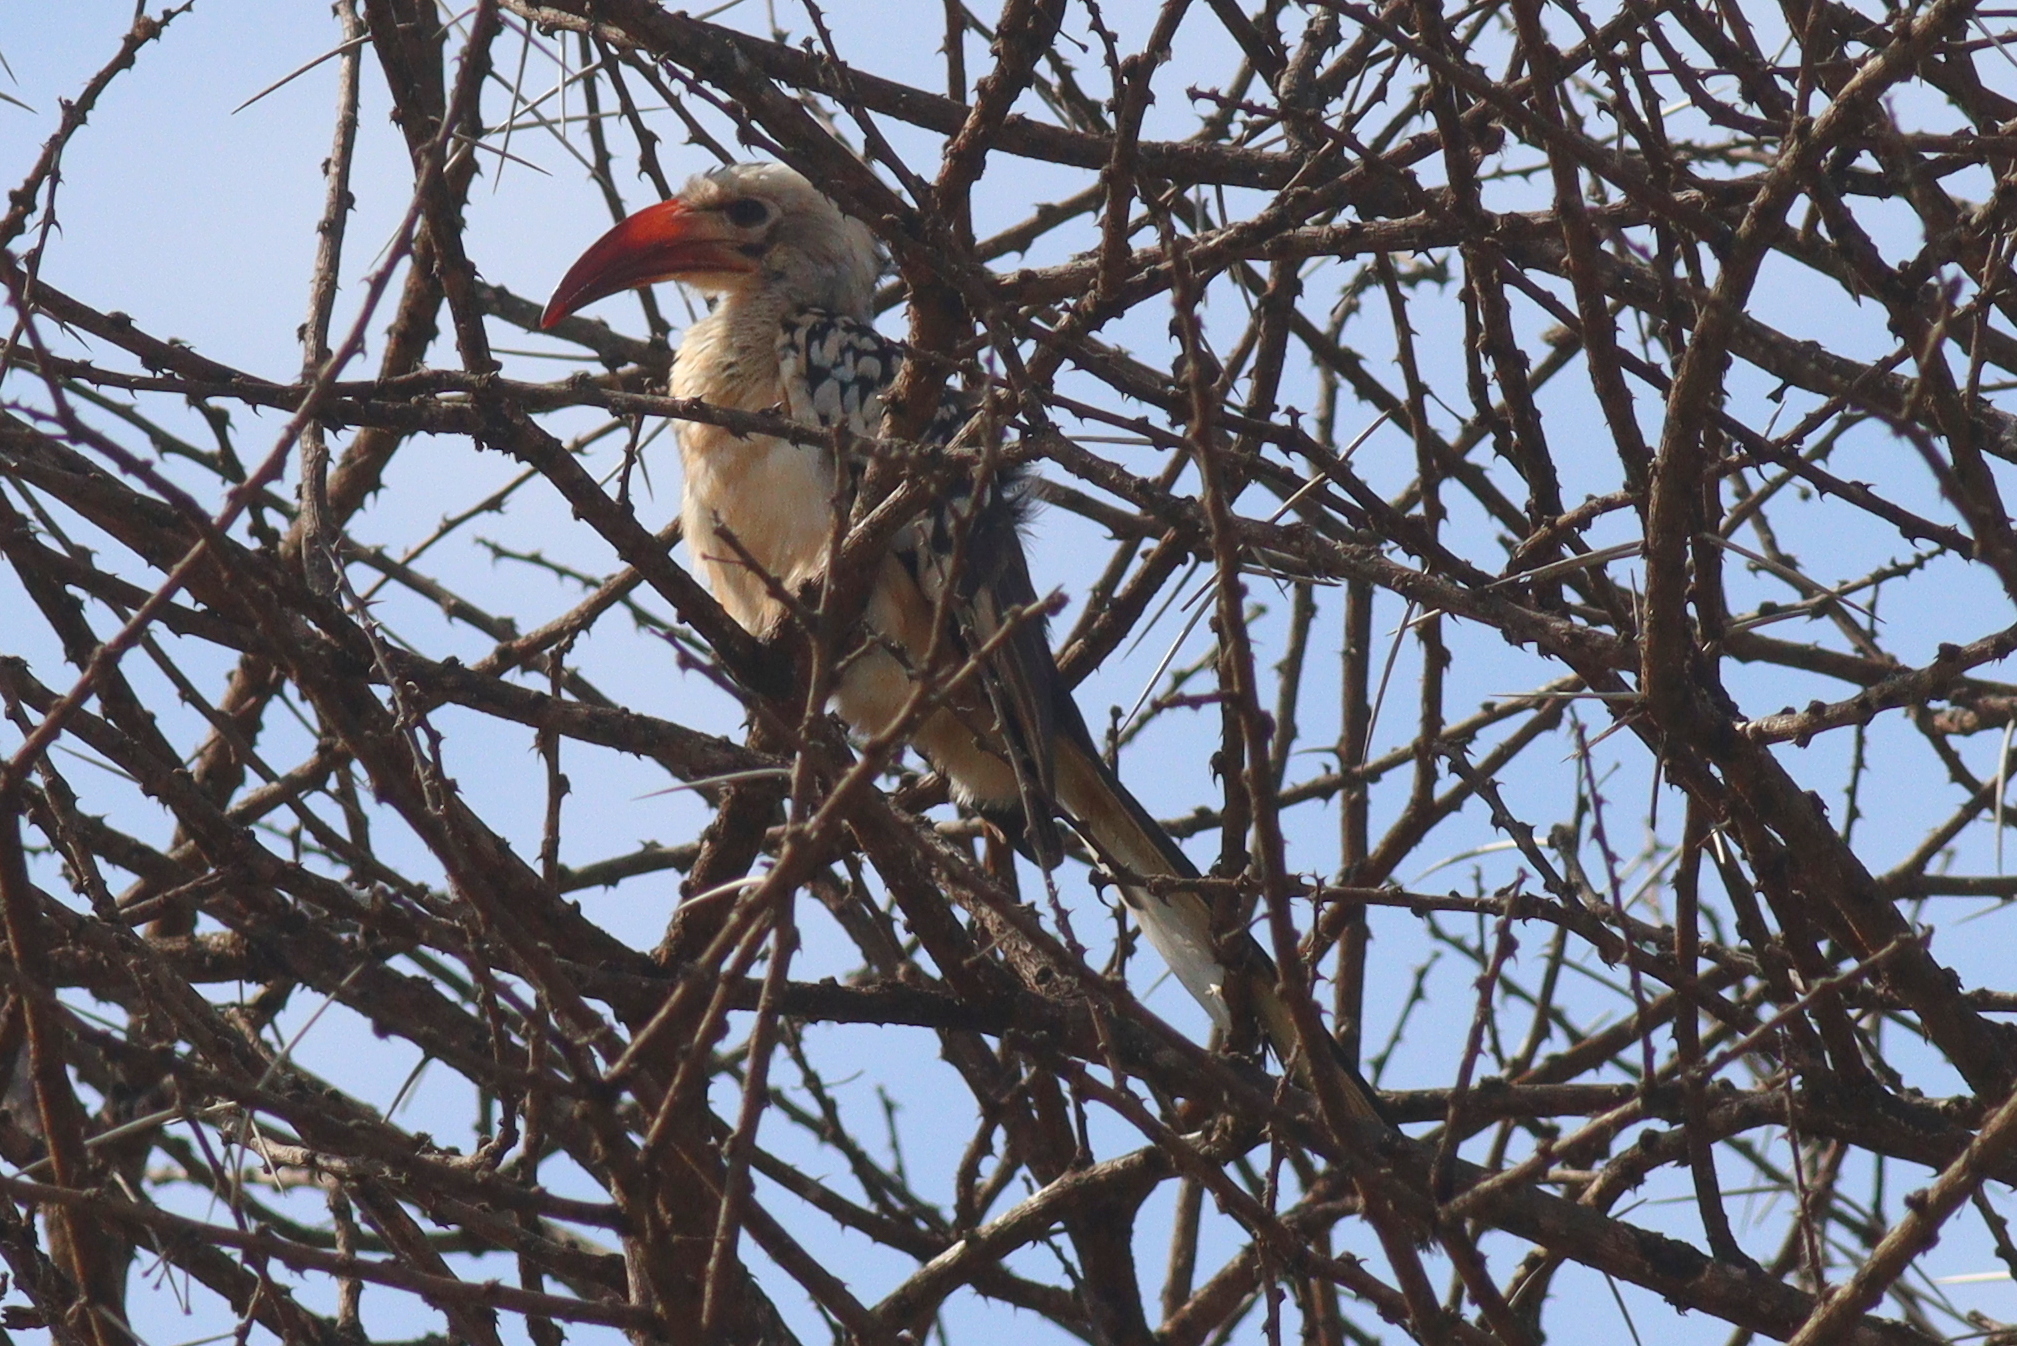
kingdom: Animalia
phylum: Chordata
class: Aves
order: Bucerotiformes
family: Bucerotidae
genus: Tockus
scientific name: Tockus erythrorhynchus
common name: Northern red-billed hornbill
